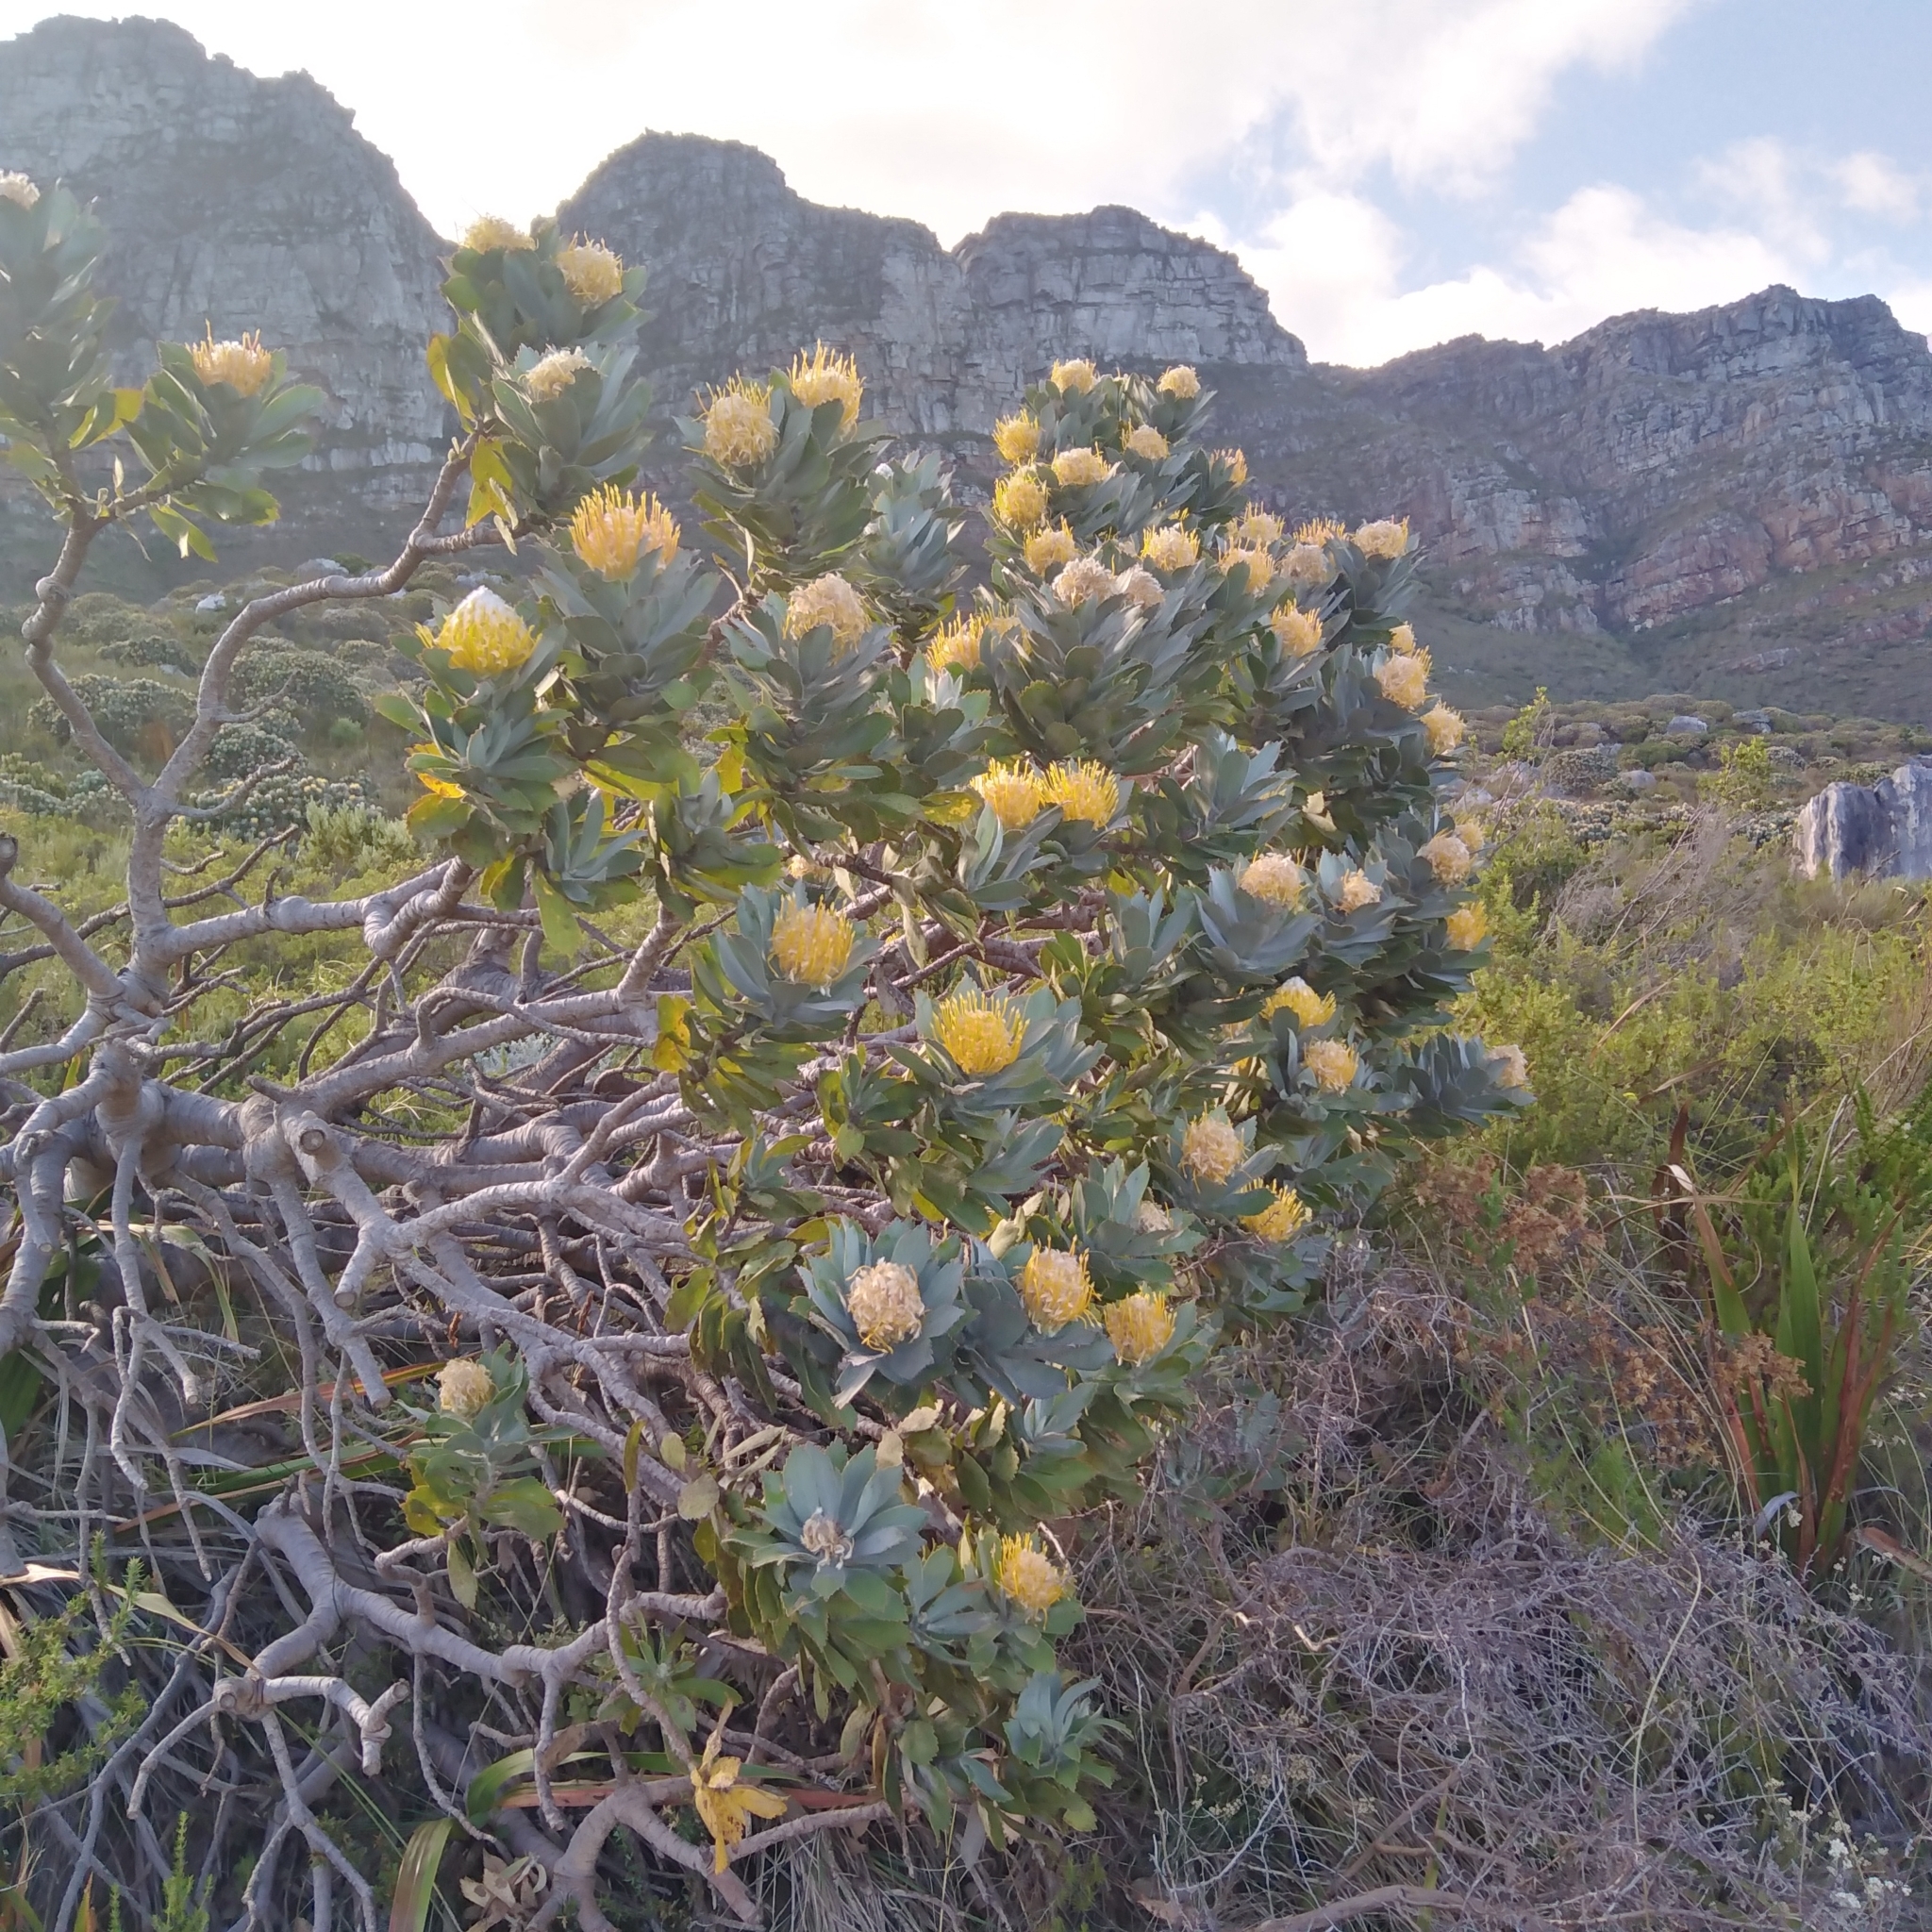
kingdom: Plantae
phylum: Tracheophyta
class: Magnoliopsida
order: Proteales
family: Proteaceae
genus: Leucospermum
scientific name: Leucospermum conocarpodendron
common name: Tree pincushion
